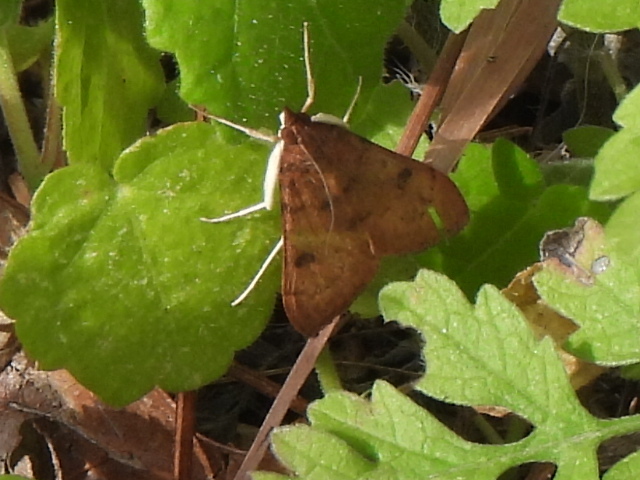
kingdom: Animalia
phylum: Arthropoda
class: Insecta
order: Lepidoptera
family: Crambidae
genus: Uresiphita
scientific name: Uresiphita reversalis
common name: Genista broom moth
